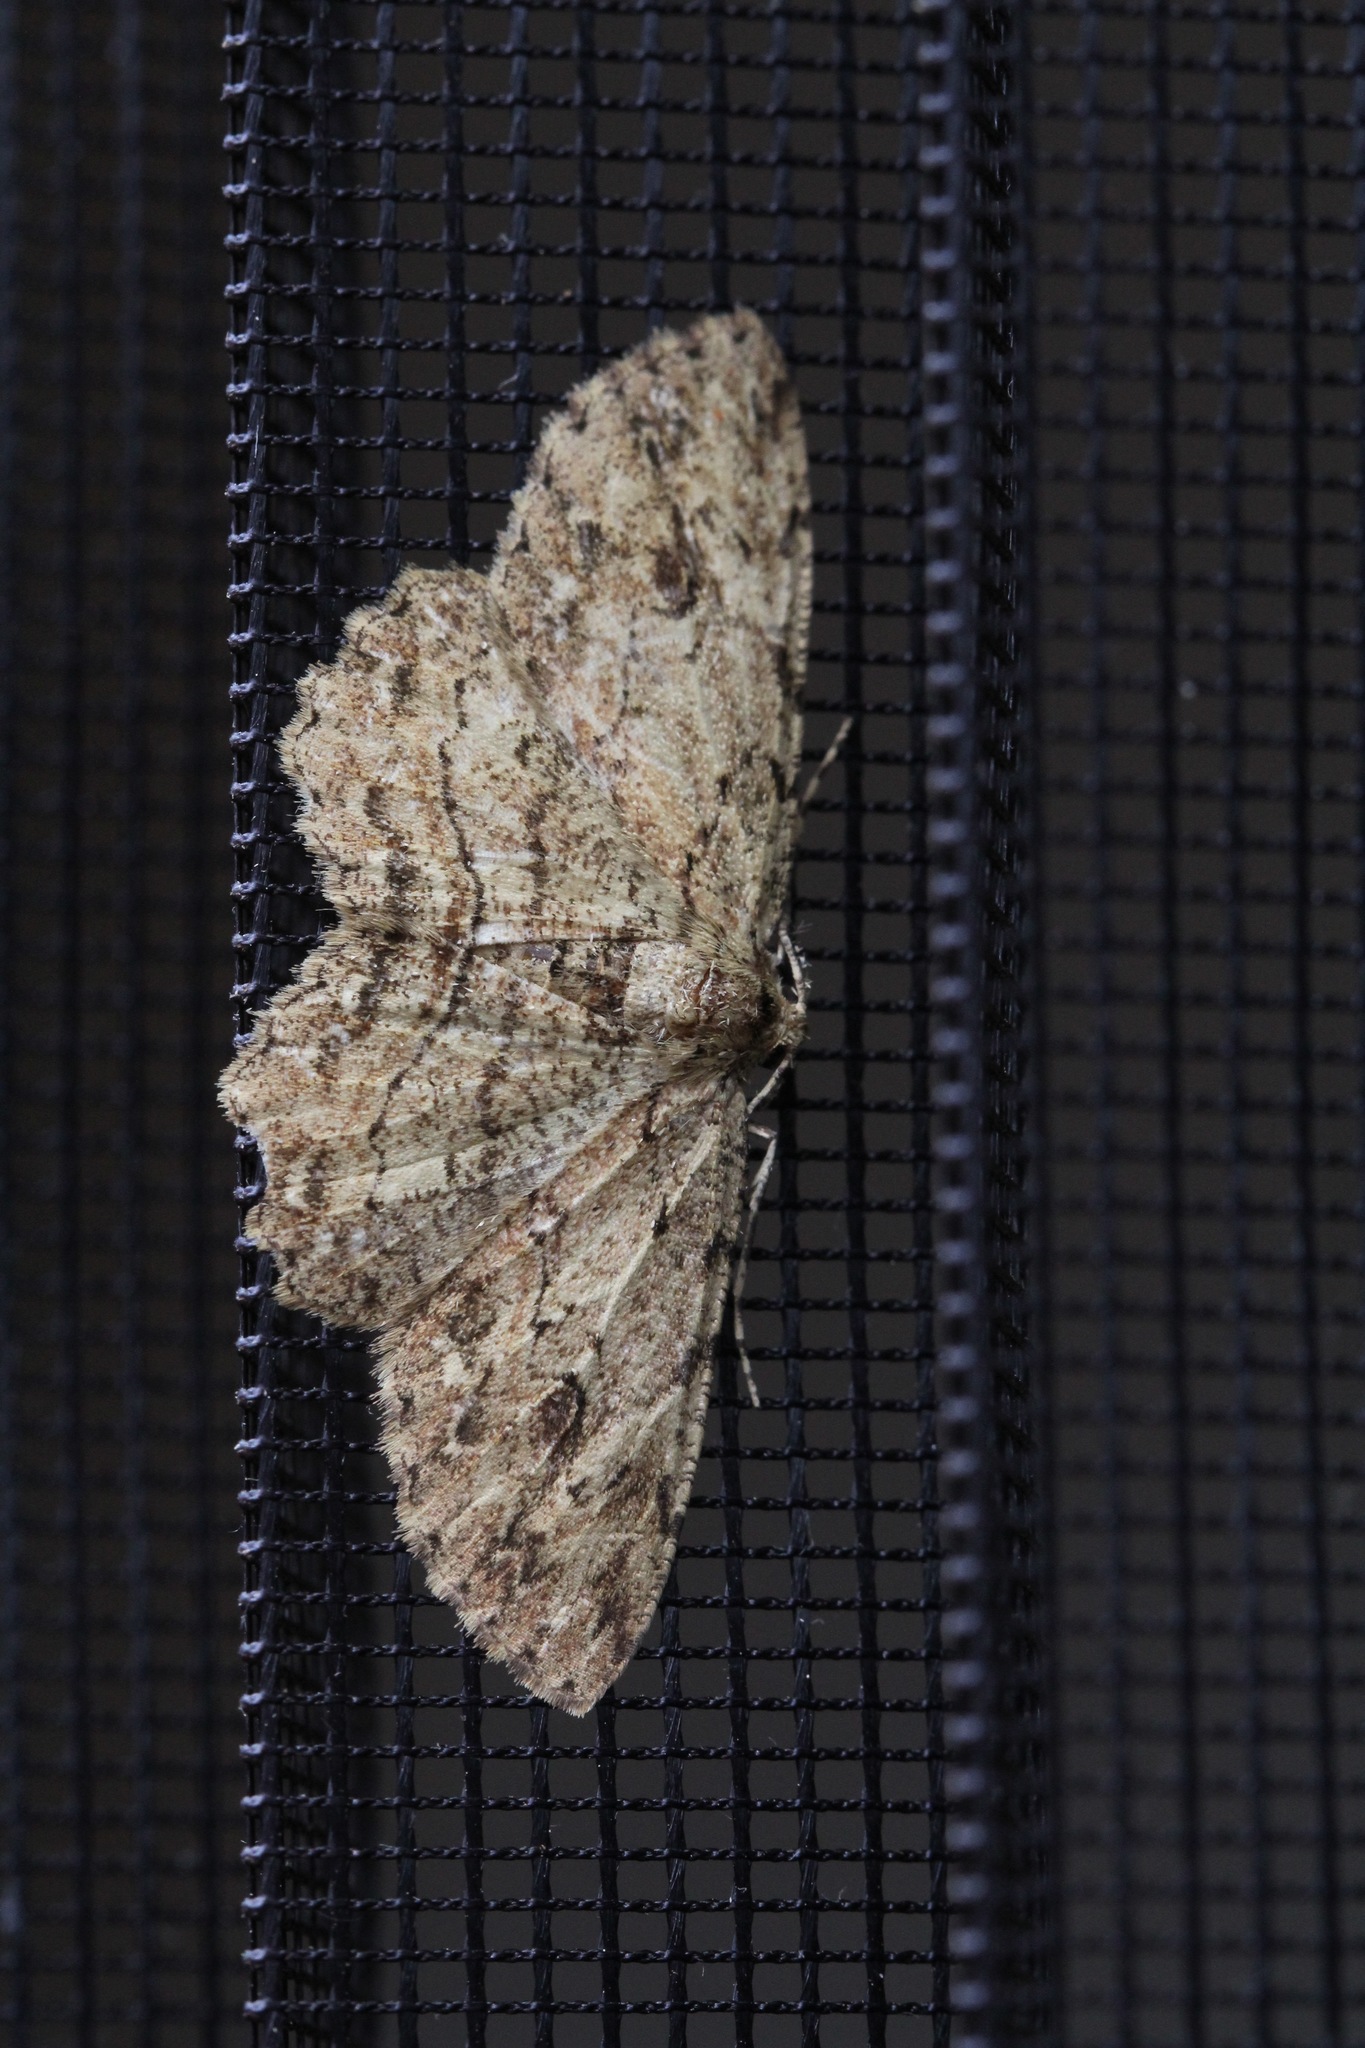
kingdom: Animalia
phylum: Arthropoda
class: Insecta
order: Lepidoptera
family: Geometridae
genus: Ectropis
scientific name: Ectropis excursaria
